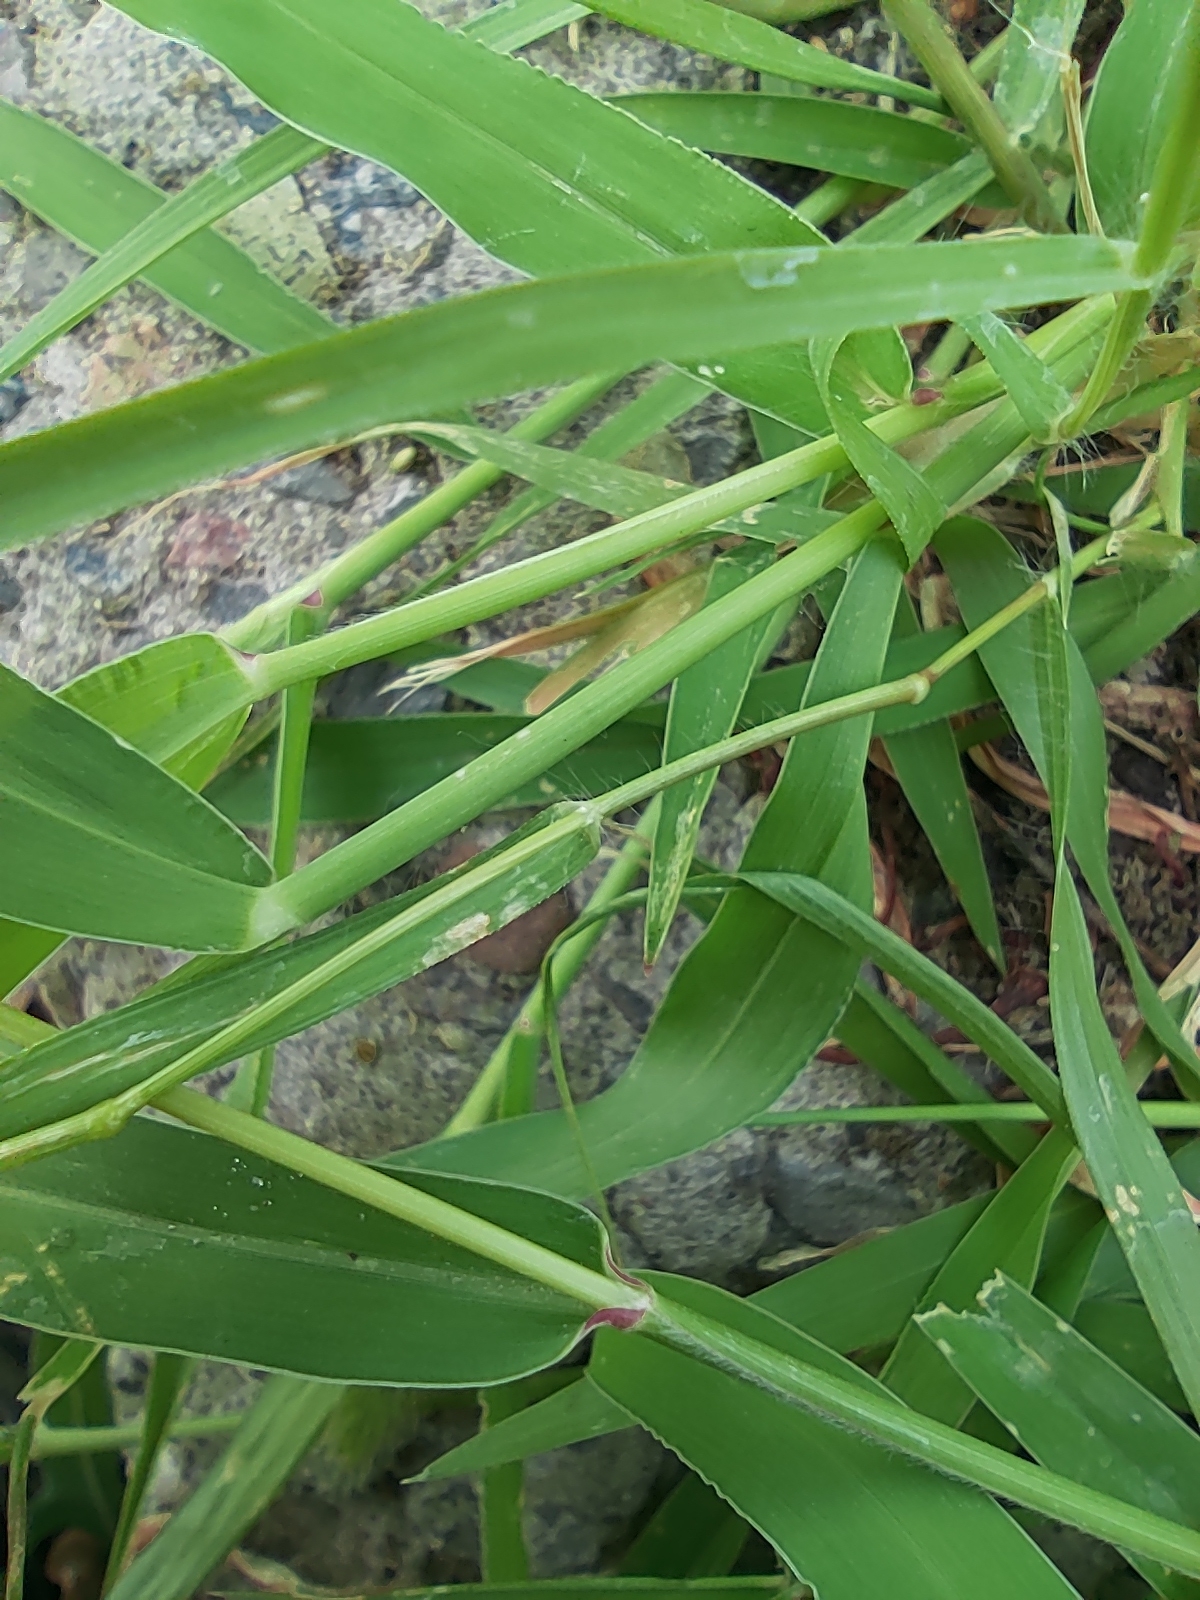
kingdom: Plantae
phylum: Tracheophyta
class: Liliopsida
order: Poales
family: Poaceae
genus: Setaria
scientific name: Setaria viridis
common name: Green bristlegrass
